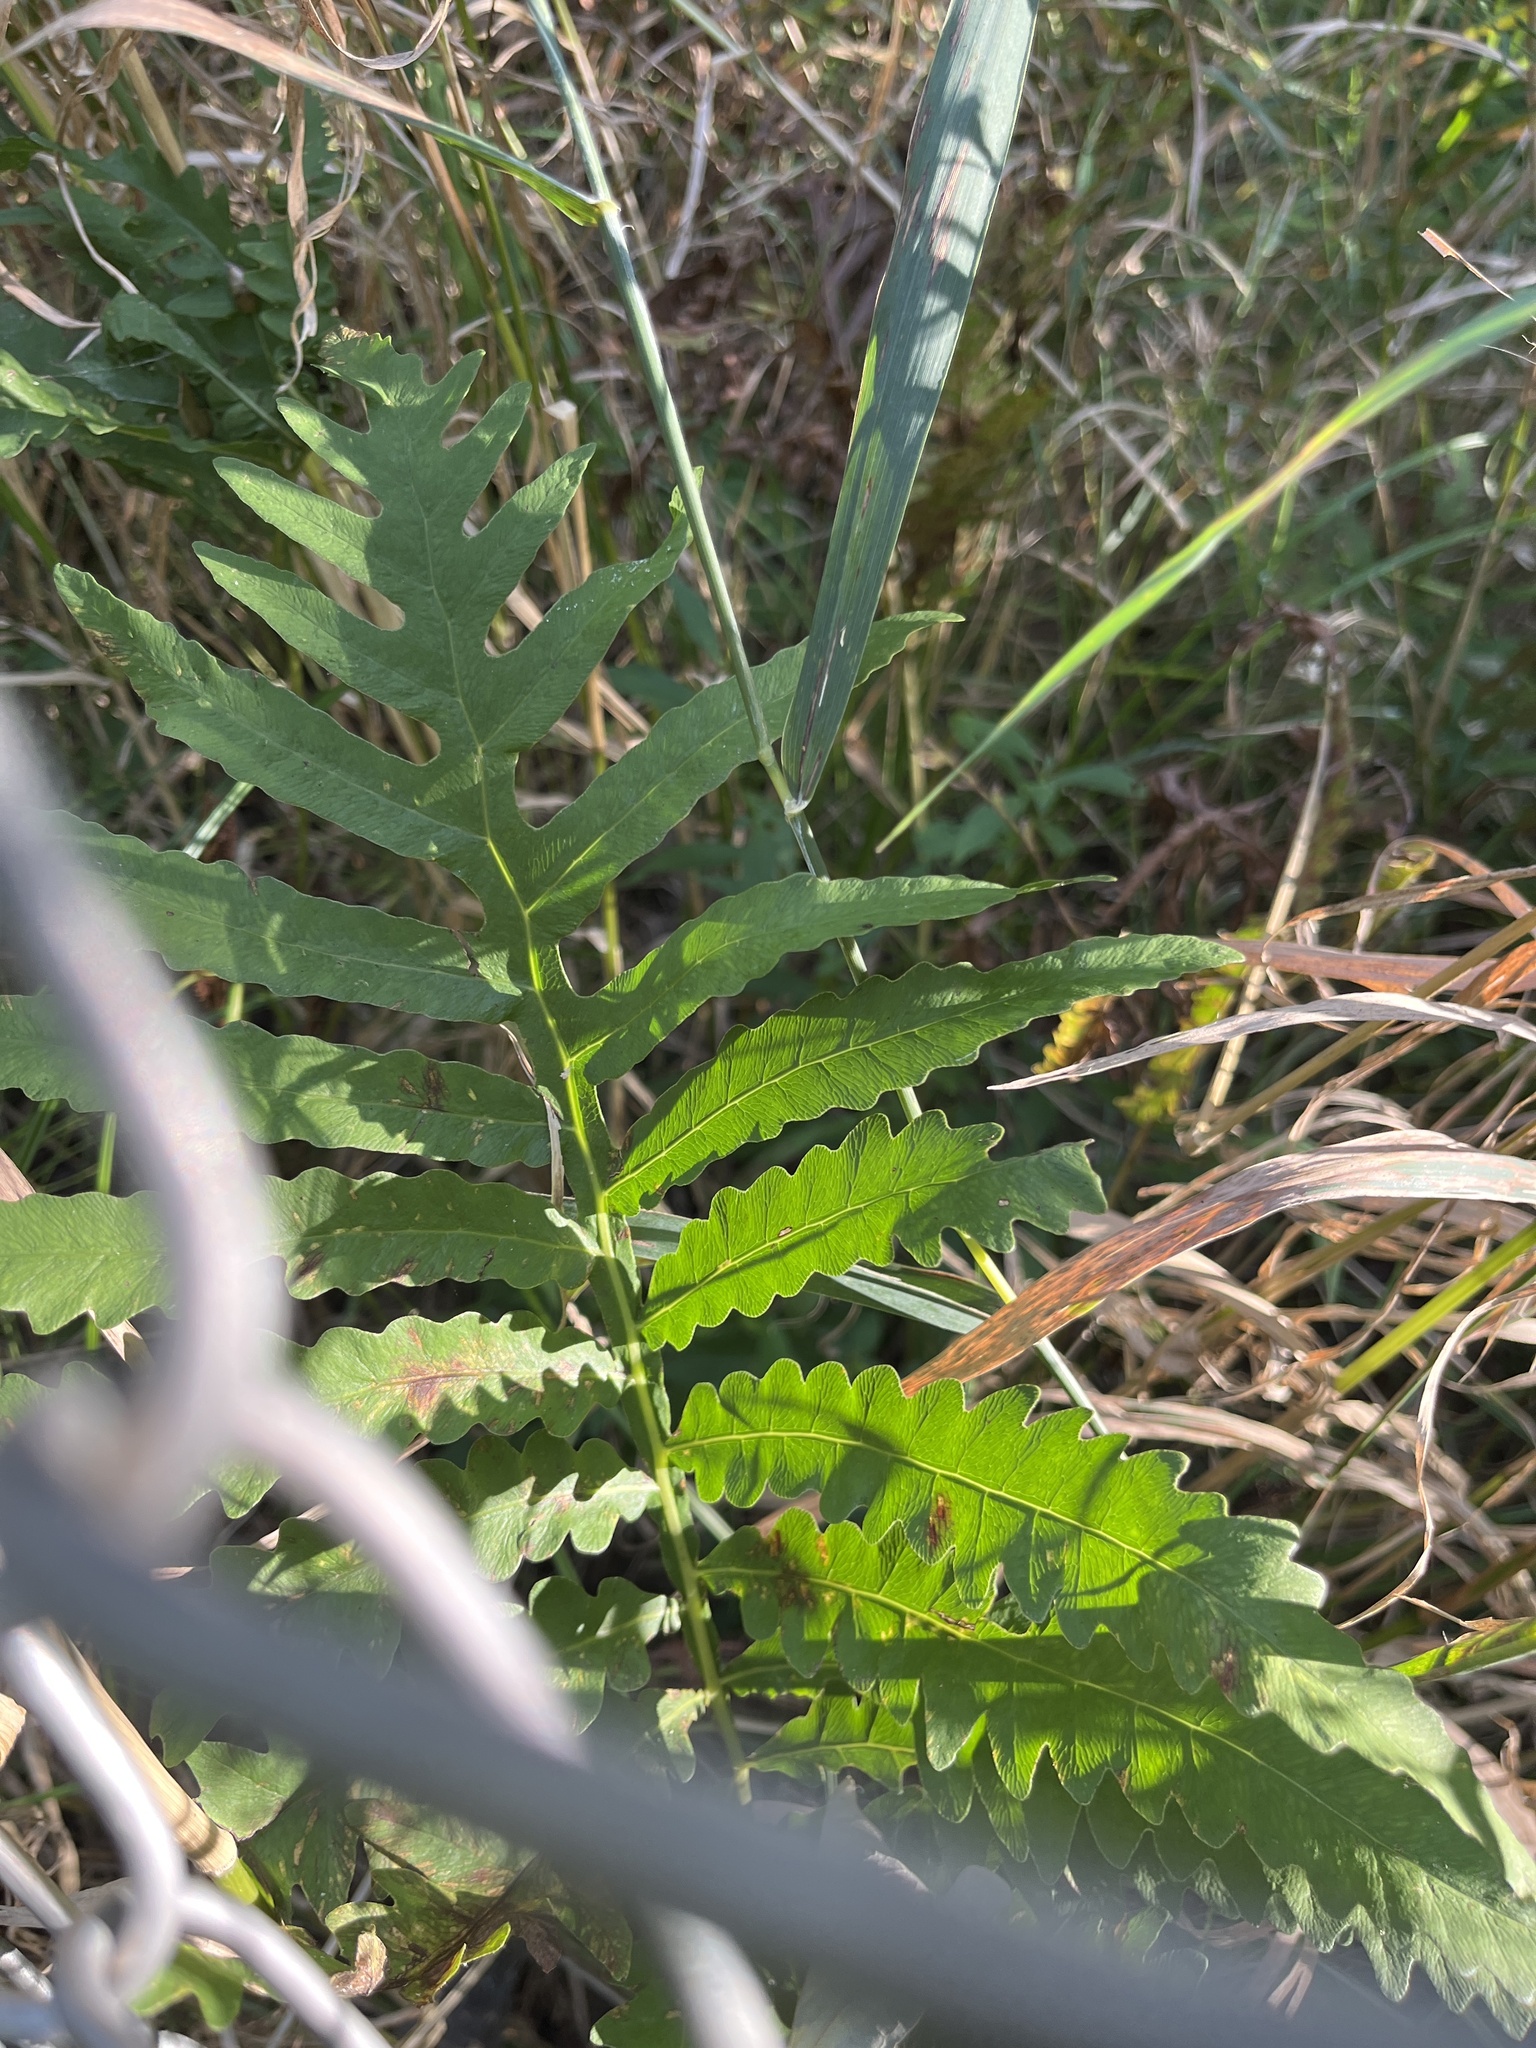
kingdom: Plantae
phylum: Tracheophyta
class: Polypodiopsida
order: Polypodiales
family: Onocleaceae
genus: Onoclea
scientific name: Onoclea sensibilis
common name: Sensitive fern
